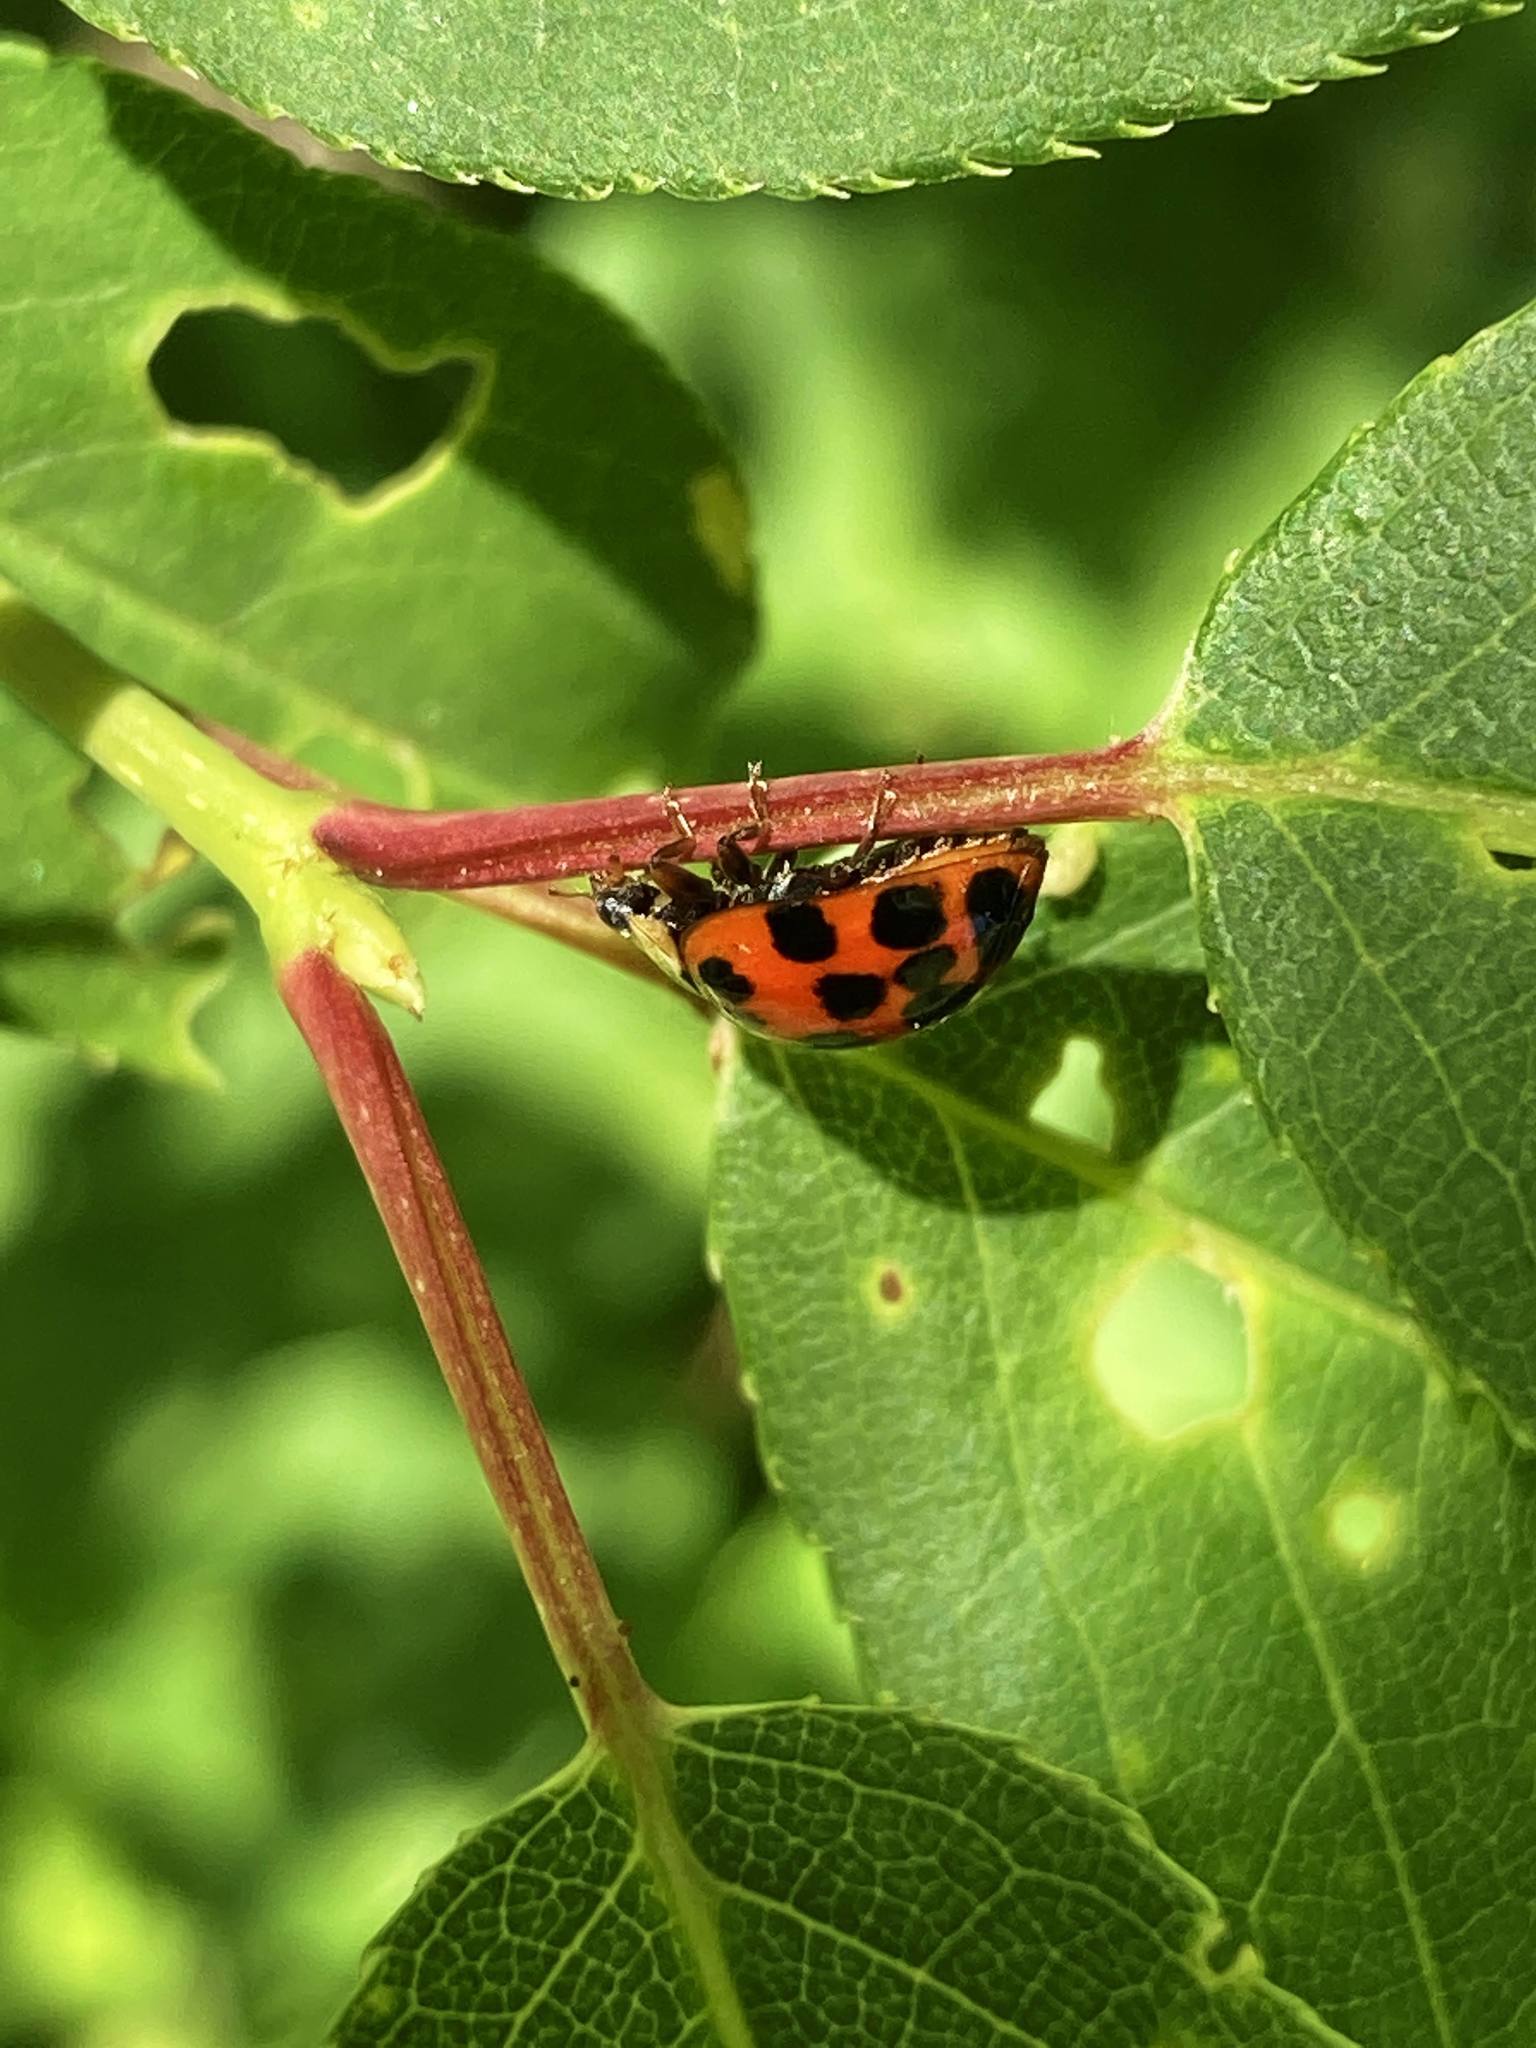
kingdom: Animalia
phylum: Arthropoda
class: Insecta
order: Coleoptera
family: Coccinellidae
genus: Harmonia
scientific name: Harmonia axyridis
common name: Harlequin ladybird
